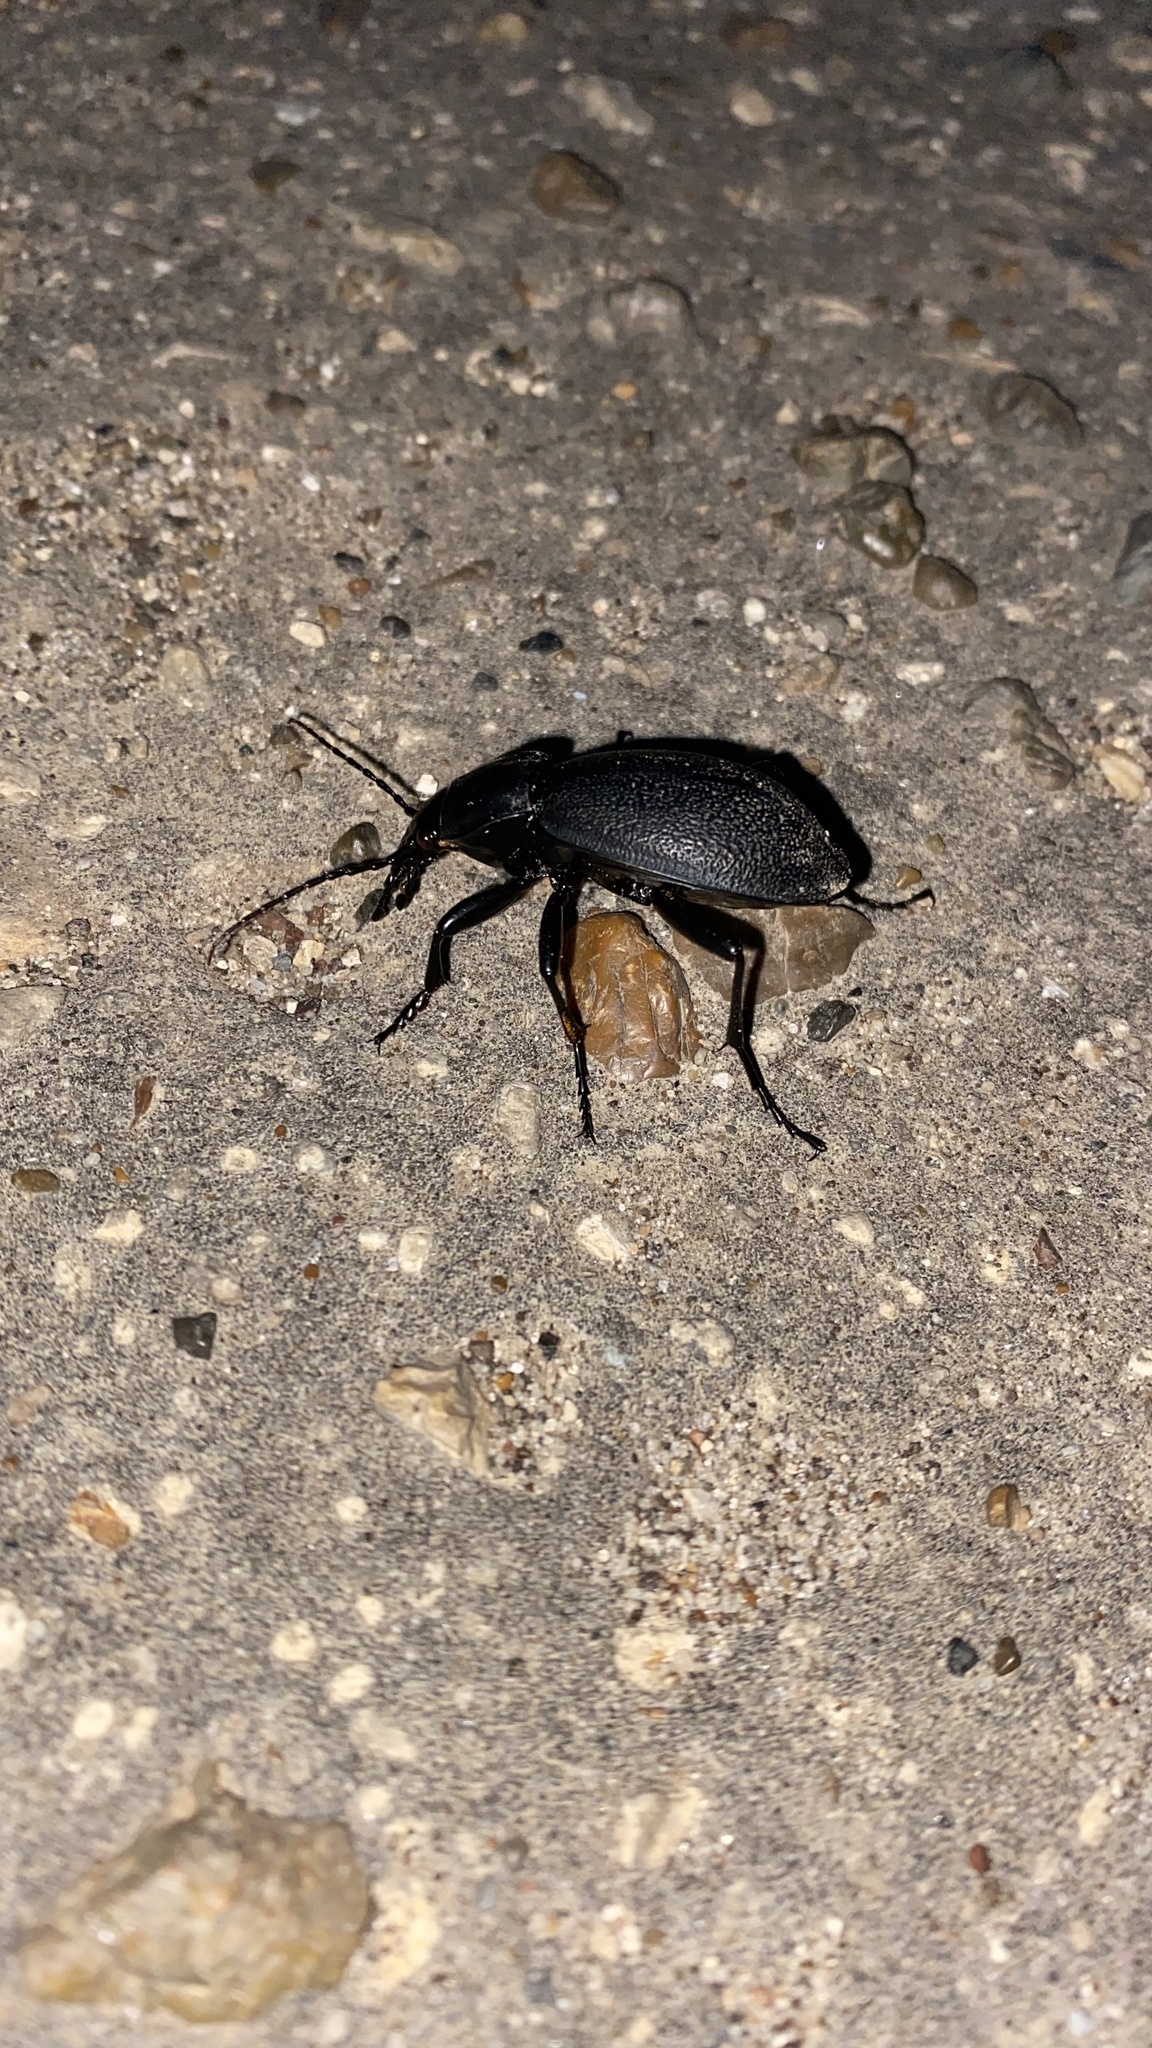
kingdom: Animalia
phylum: Arthropoda
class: Insecta
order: Coleoptera
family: Carabidae
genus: Carabus
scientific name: Carabus coriaceus
